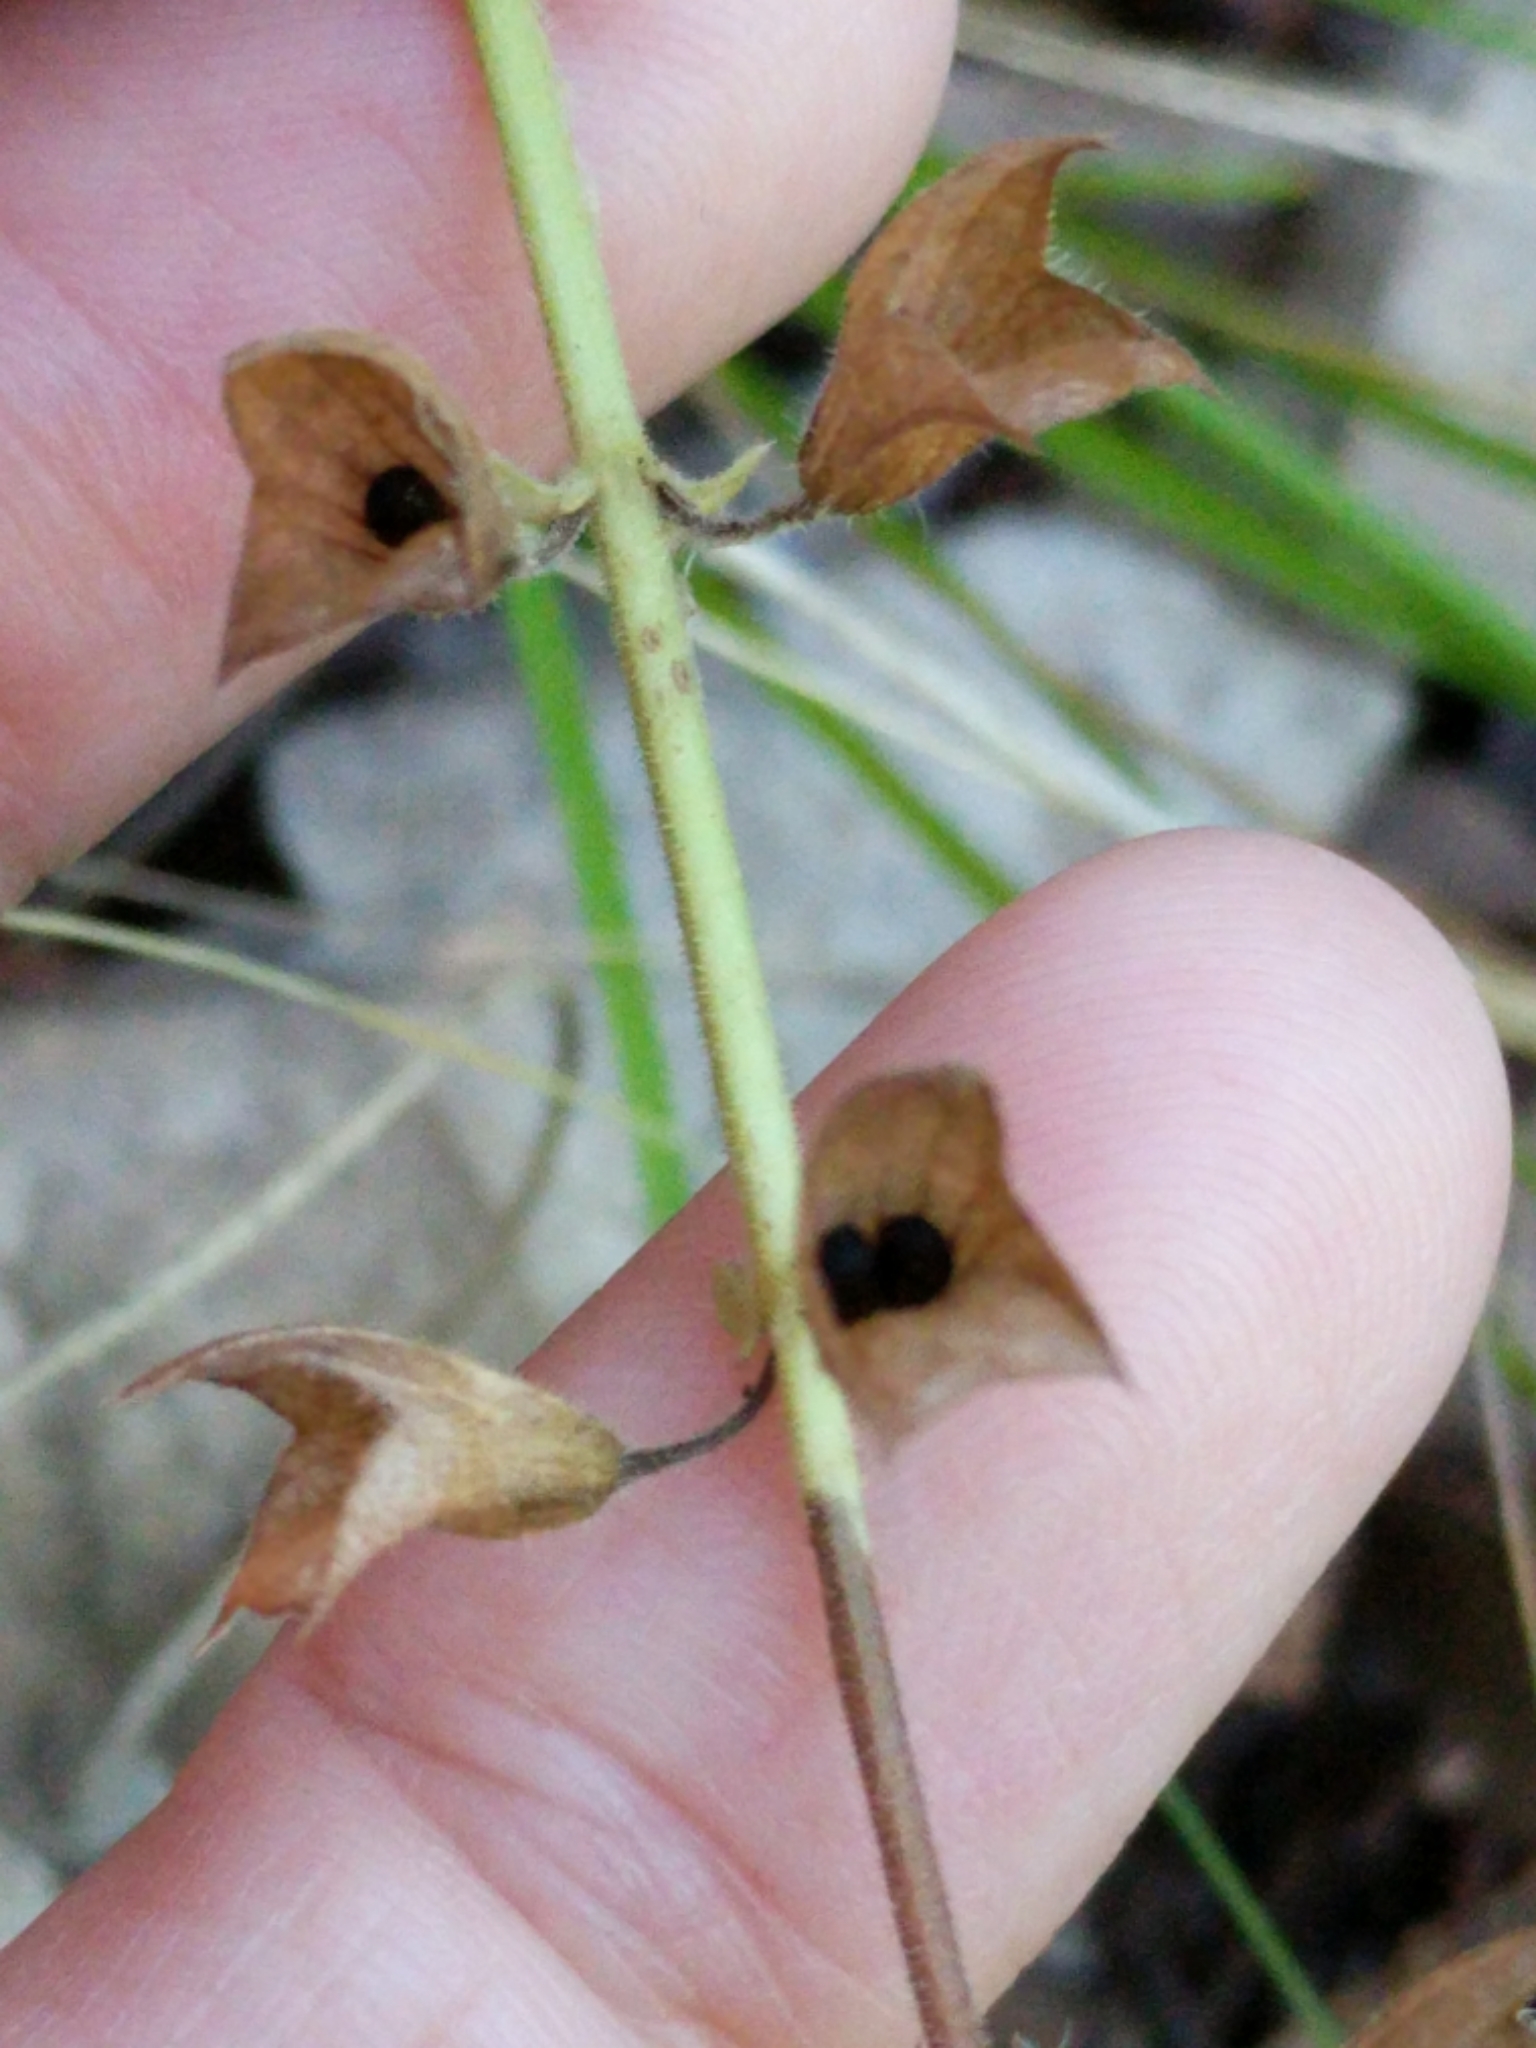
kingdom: Plantae
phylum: Tracheophyta
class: Magnoliopsida
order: Lamiales
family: Lamiaceae
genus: Salvia
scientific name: Salvia roemeriana
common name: Cedar sage
